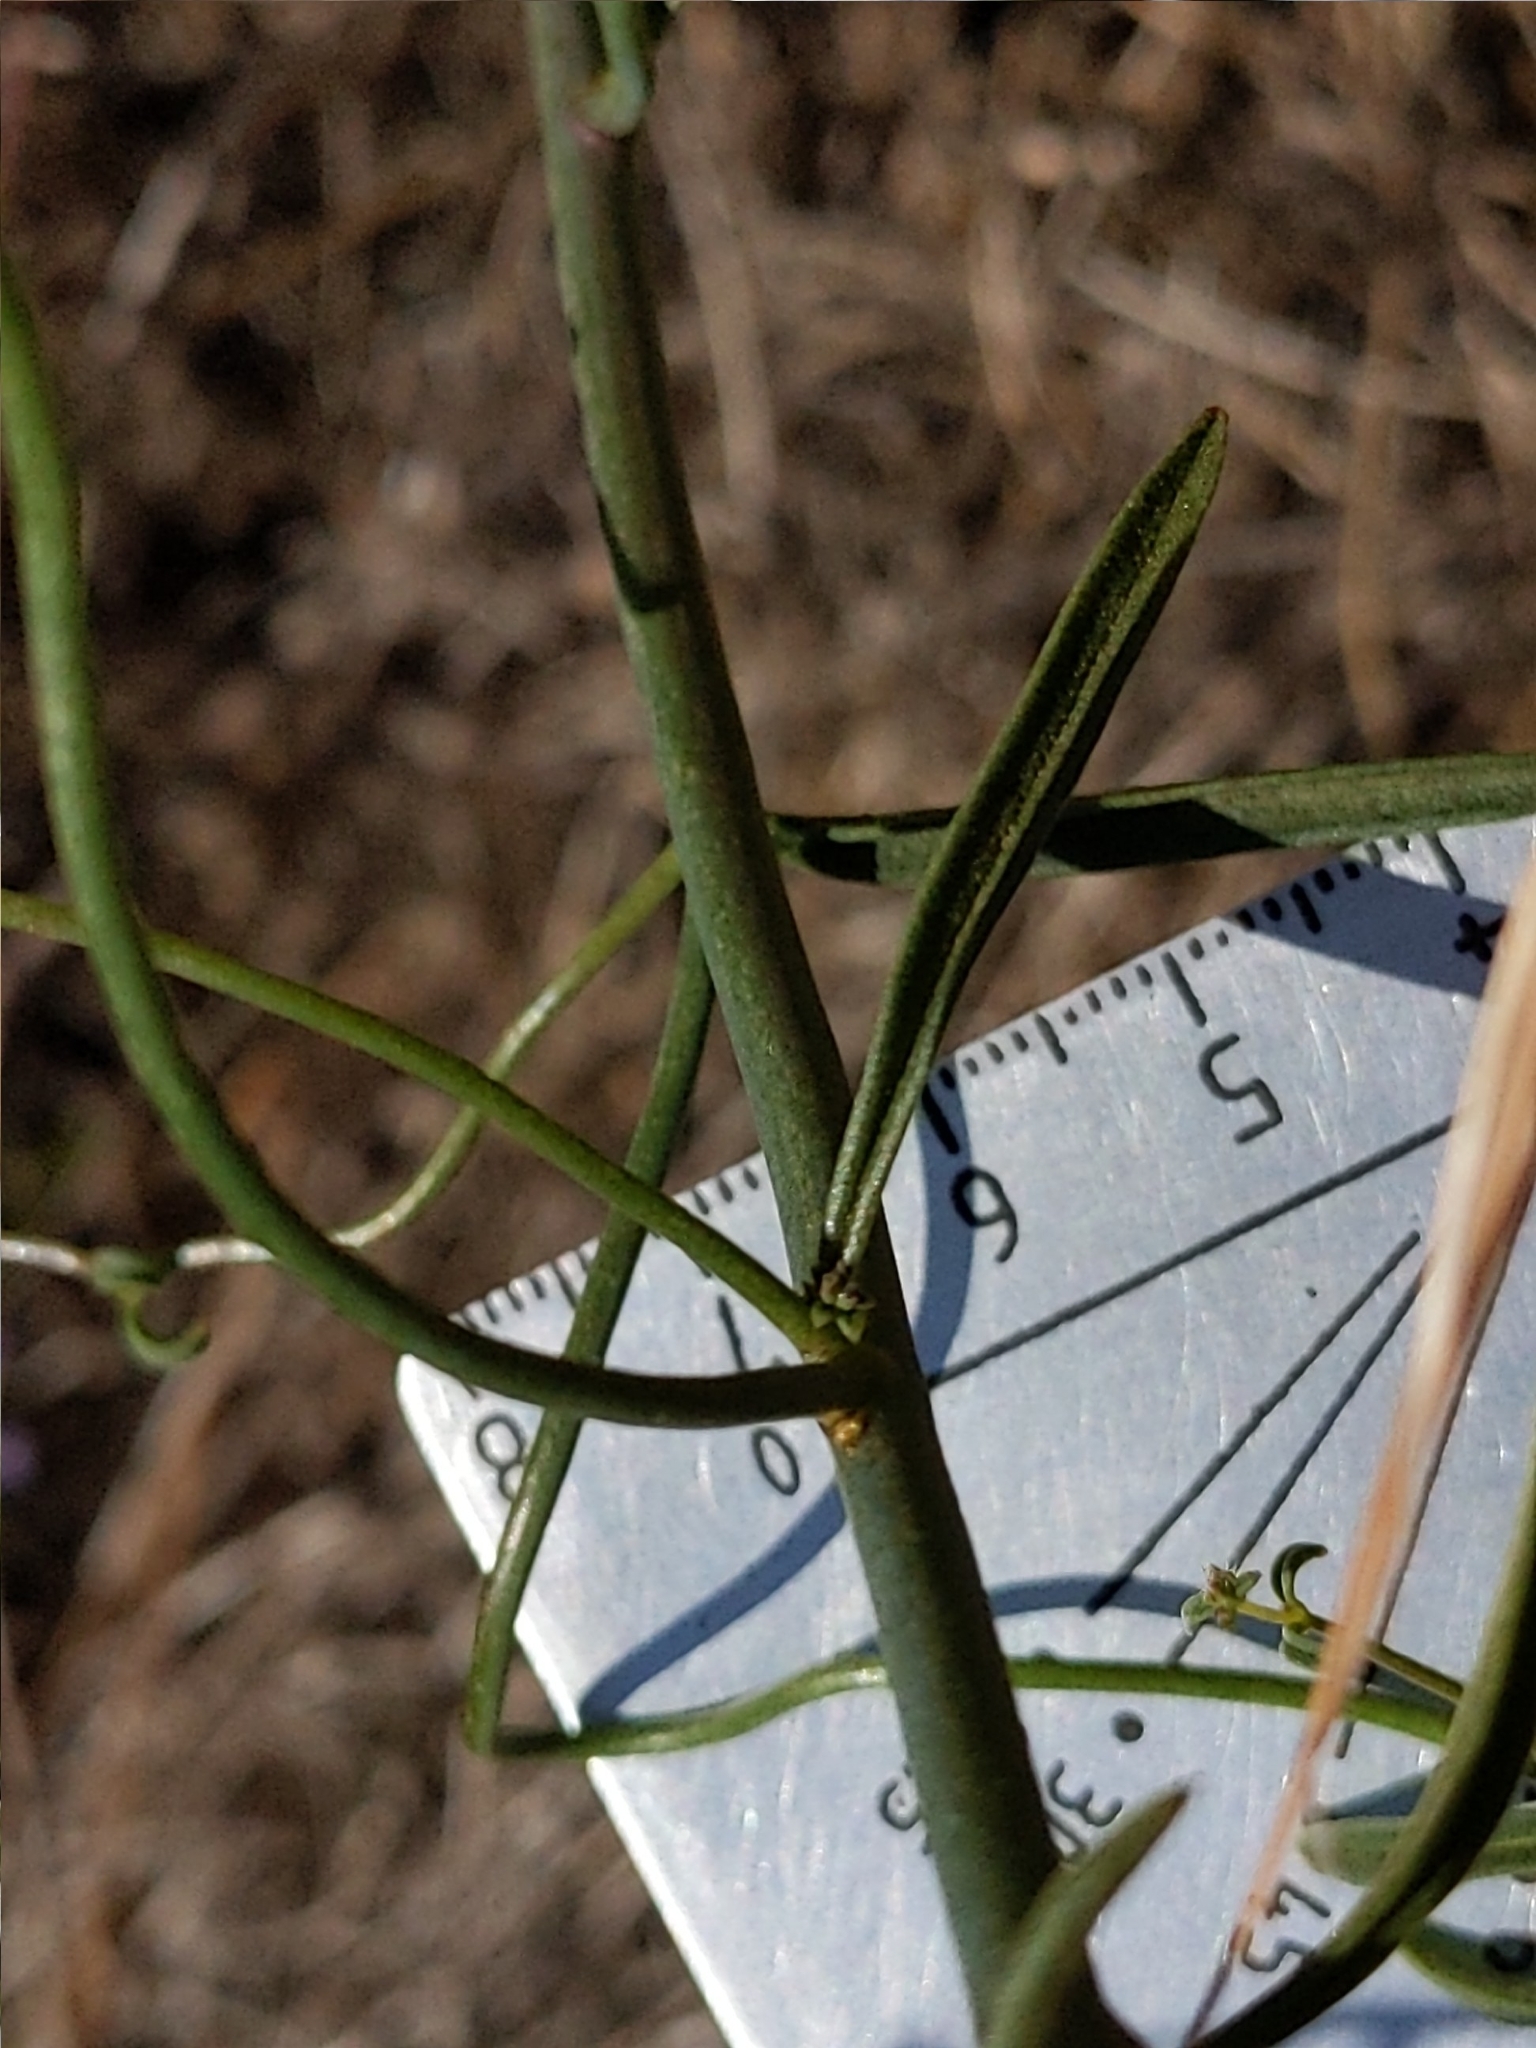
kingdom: Plantae
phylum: Tracheophyta
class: Magnoliopsida
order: Lamiales
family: Plantaginaceae
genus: Sairocarpus
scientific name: Sairocarpus coulterianus
